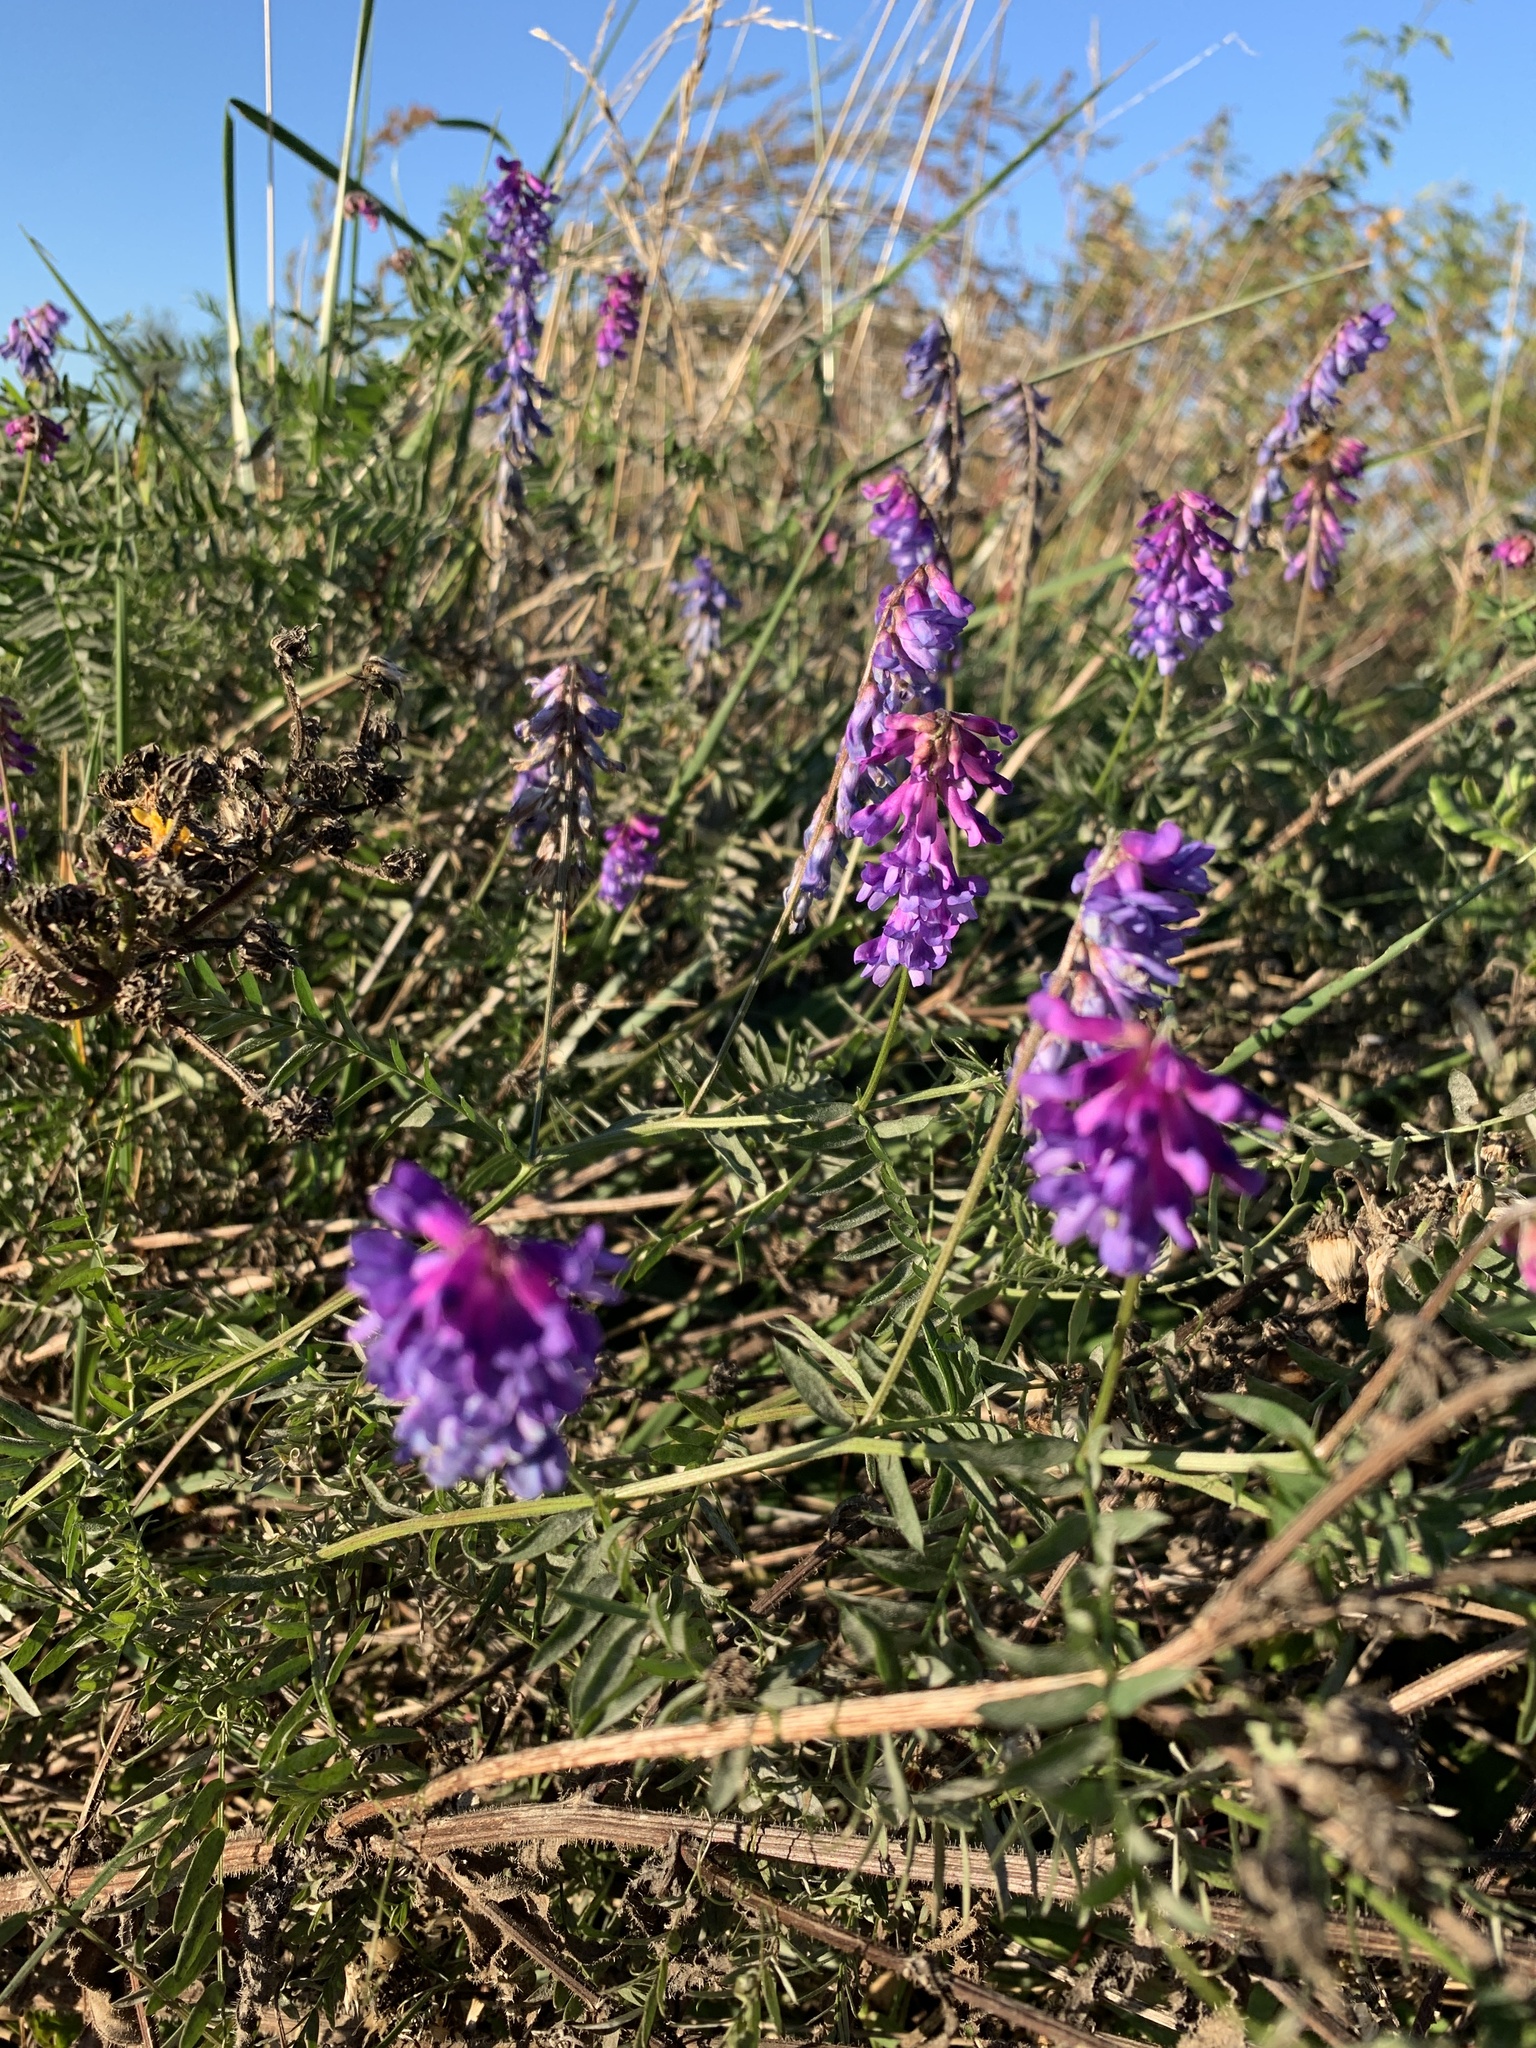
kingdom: Plantae
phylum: Tracheophyta
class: Magnoliopsida
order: Fabales
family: Fabaceae
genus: Vicia
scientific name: Vicia cracca
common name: Bird vetch
